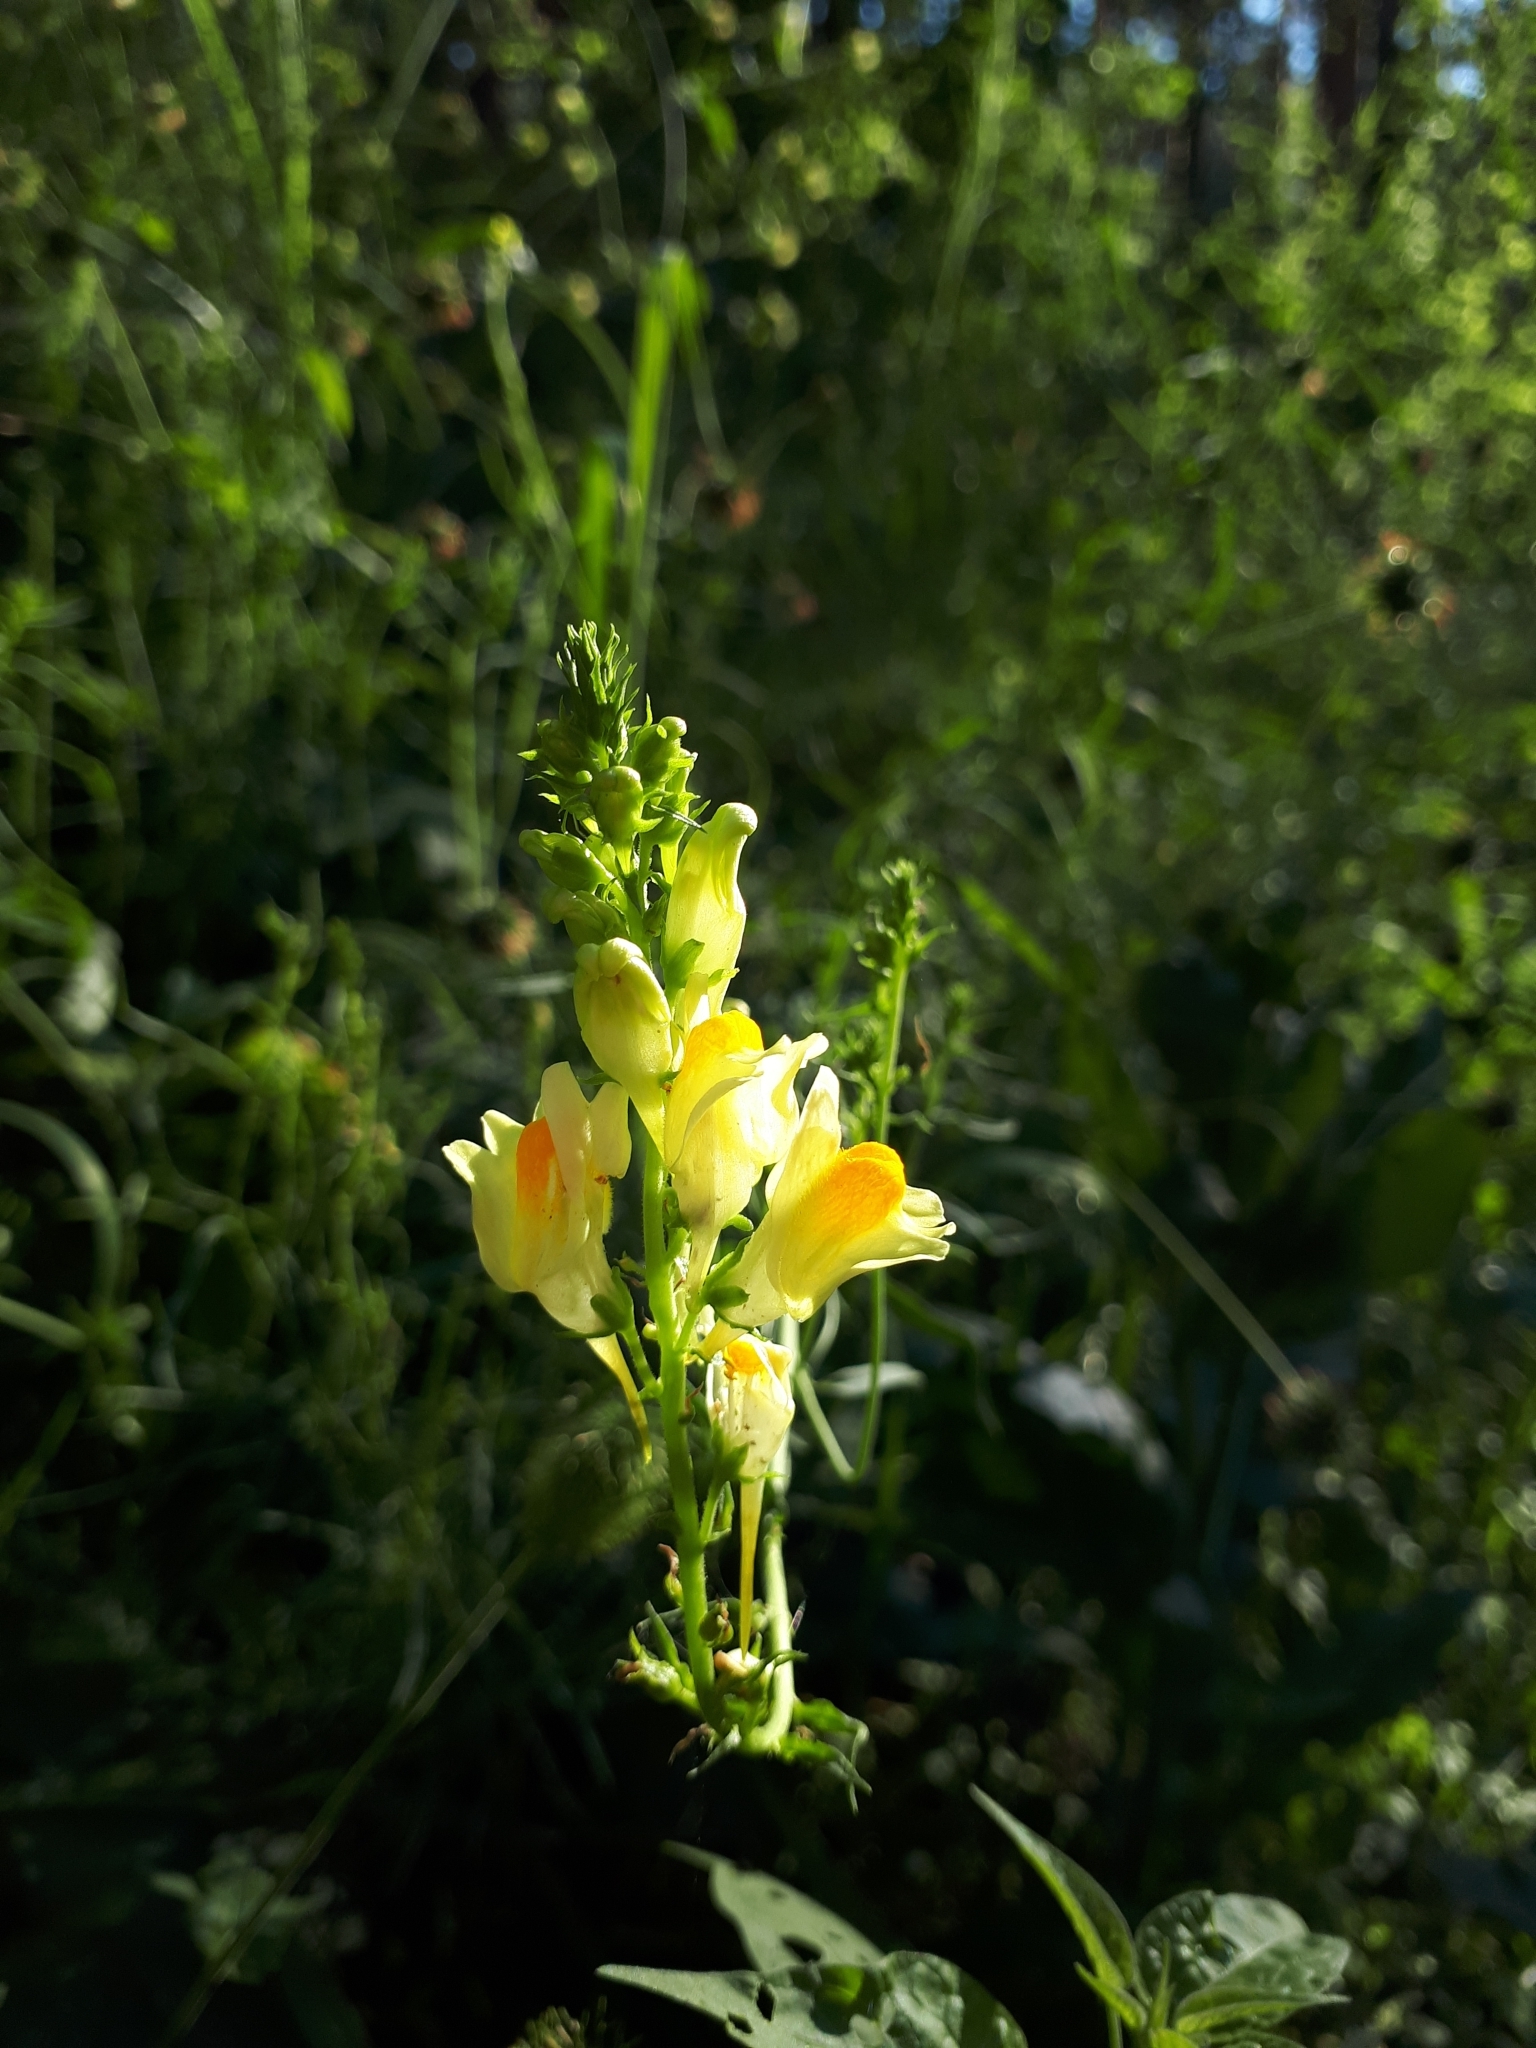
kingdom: Plantae
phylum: Tracheophyta
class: Magnoliopsida
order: Lamiales
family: Plantaginaceae
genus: Linaria
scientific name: Linaria vulgaris
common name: Butter and eggs
